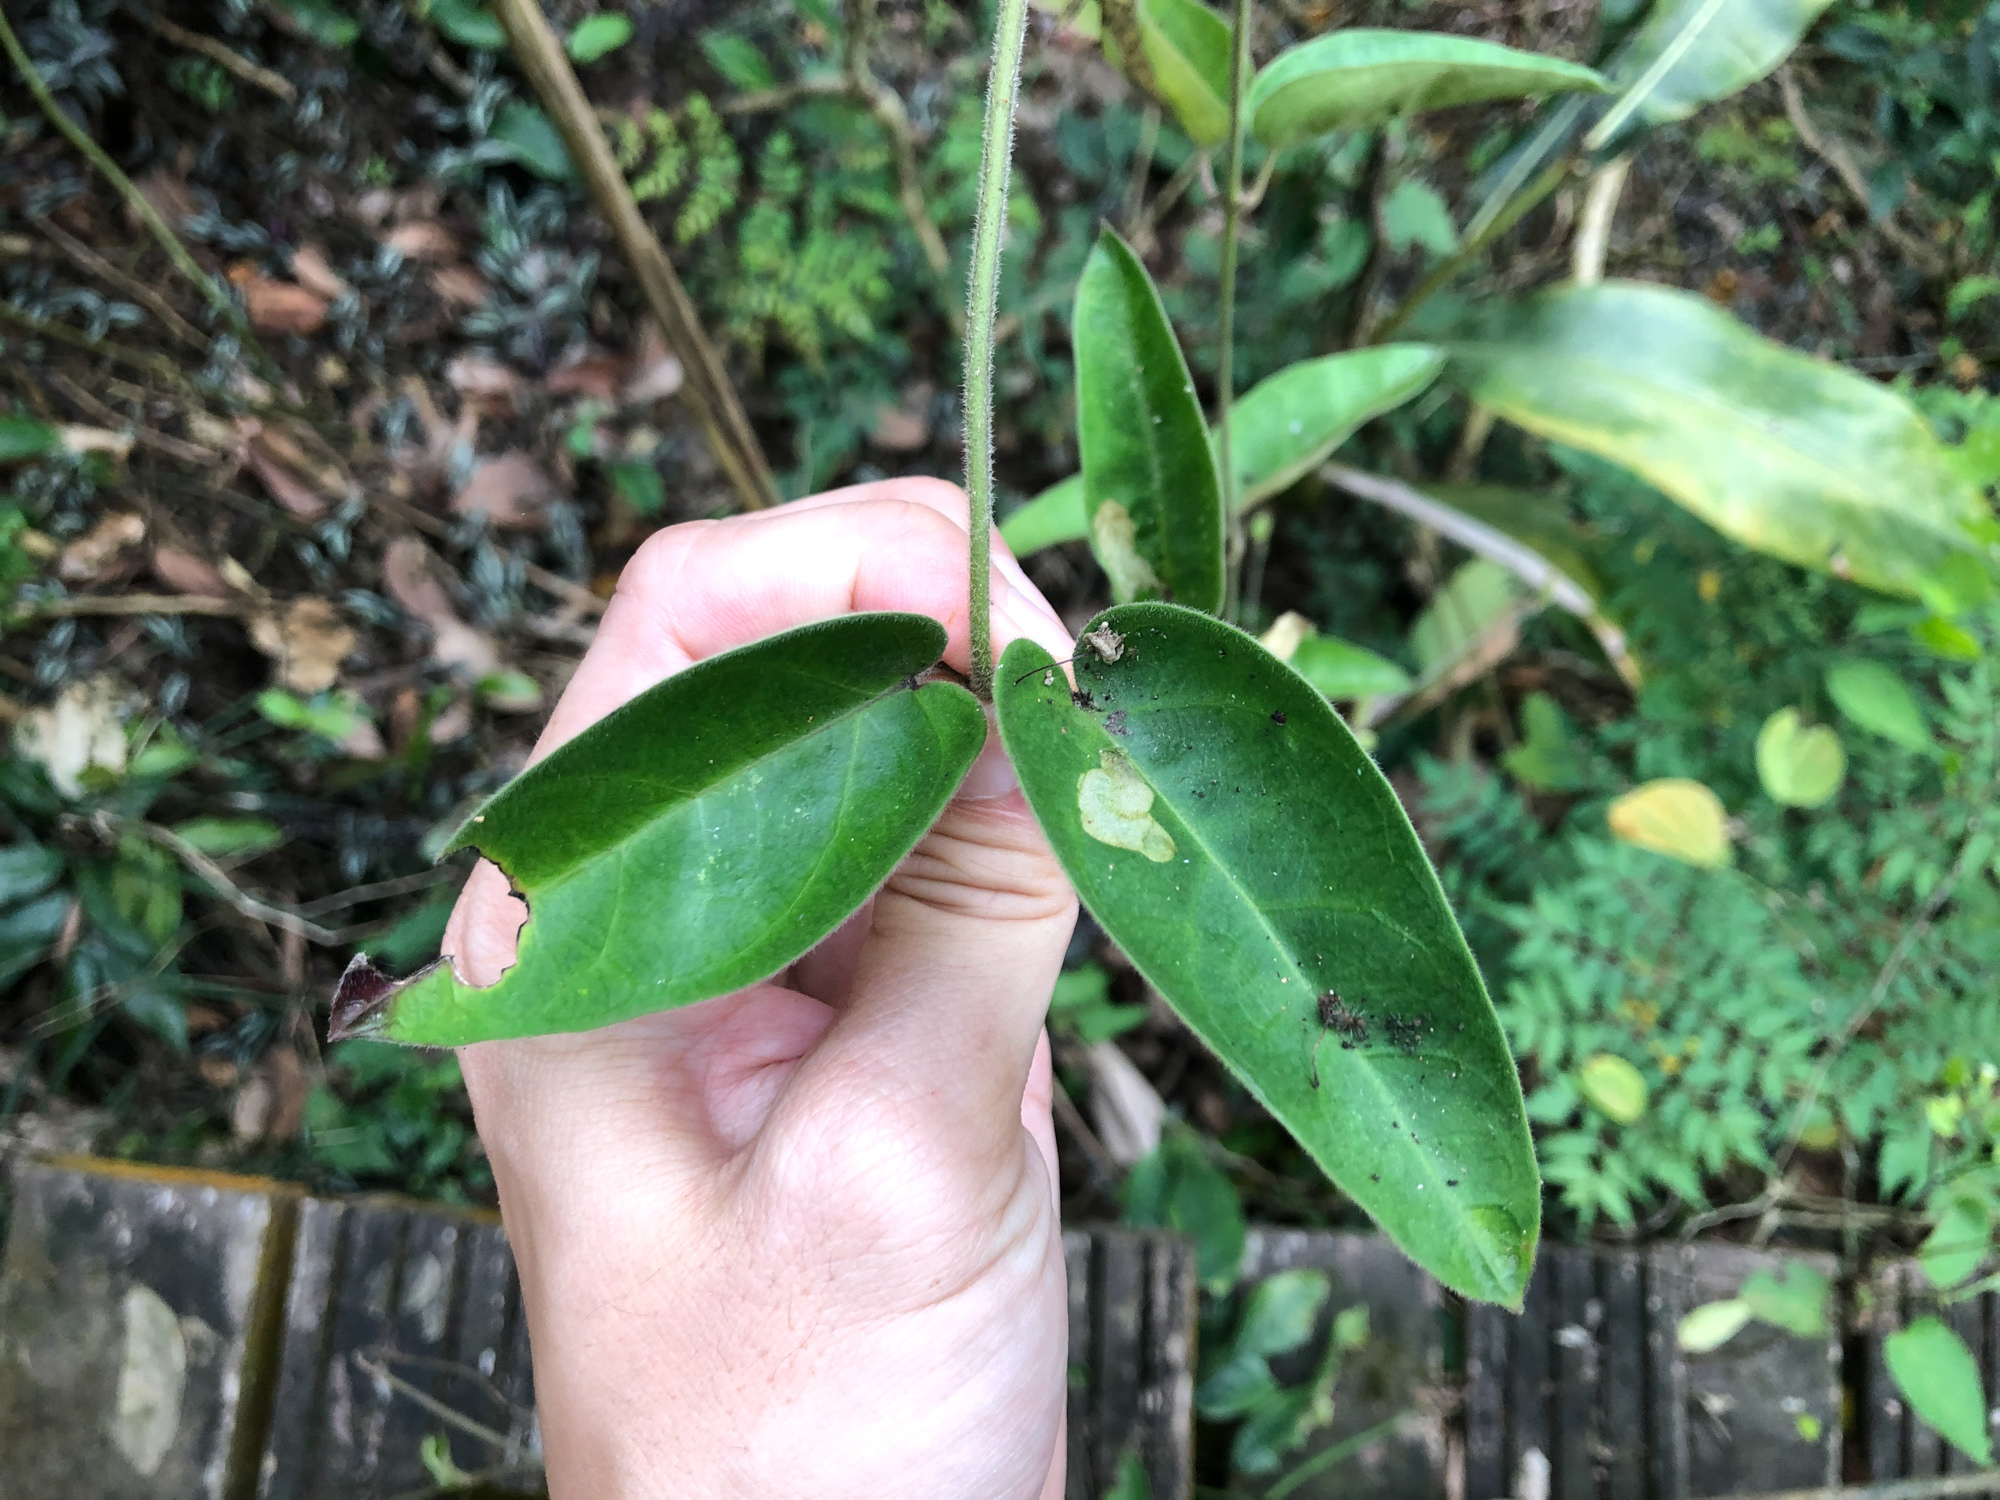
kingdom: Plantae
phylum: Tracheophyta
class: Magnoliopsida
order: Gentianales
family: Apocynaceae
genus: Vincetoxicum
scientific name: Vincetoxicum hirsutum
